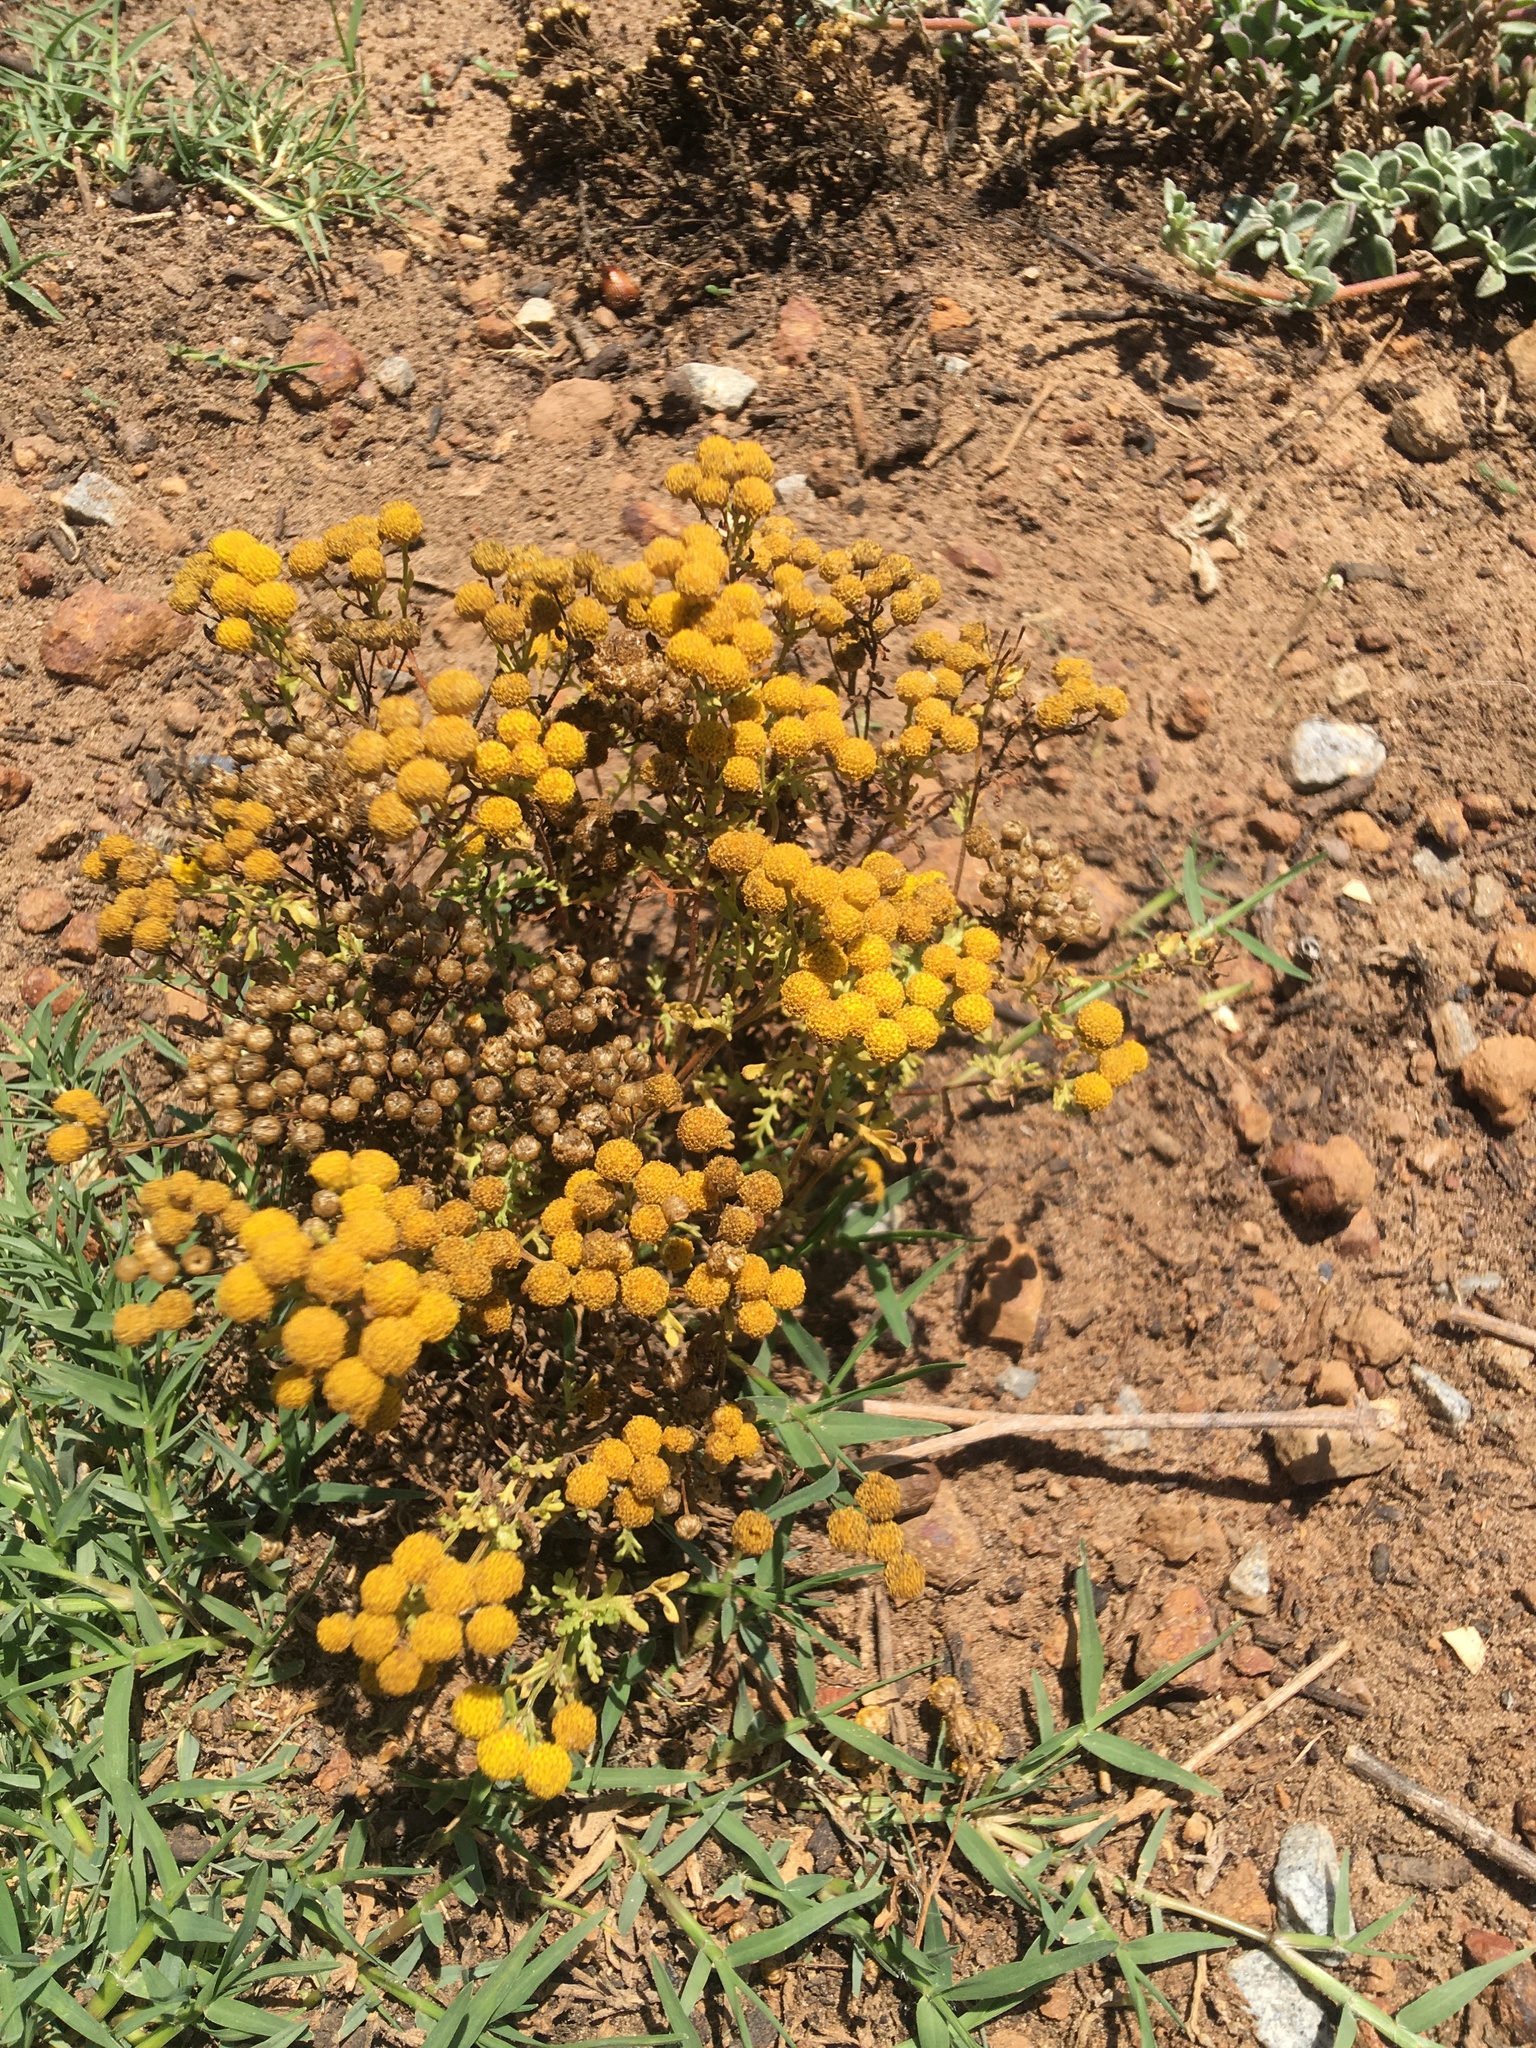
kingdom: Plantae
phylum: Tracheophyta
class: Magnoliopsida
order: Asterales
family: Asteraceae
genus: Oncosiphon
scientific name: Oncosiphon suffruticosus
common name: Shrubby mayweed
